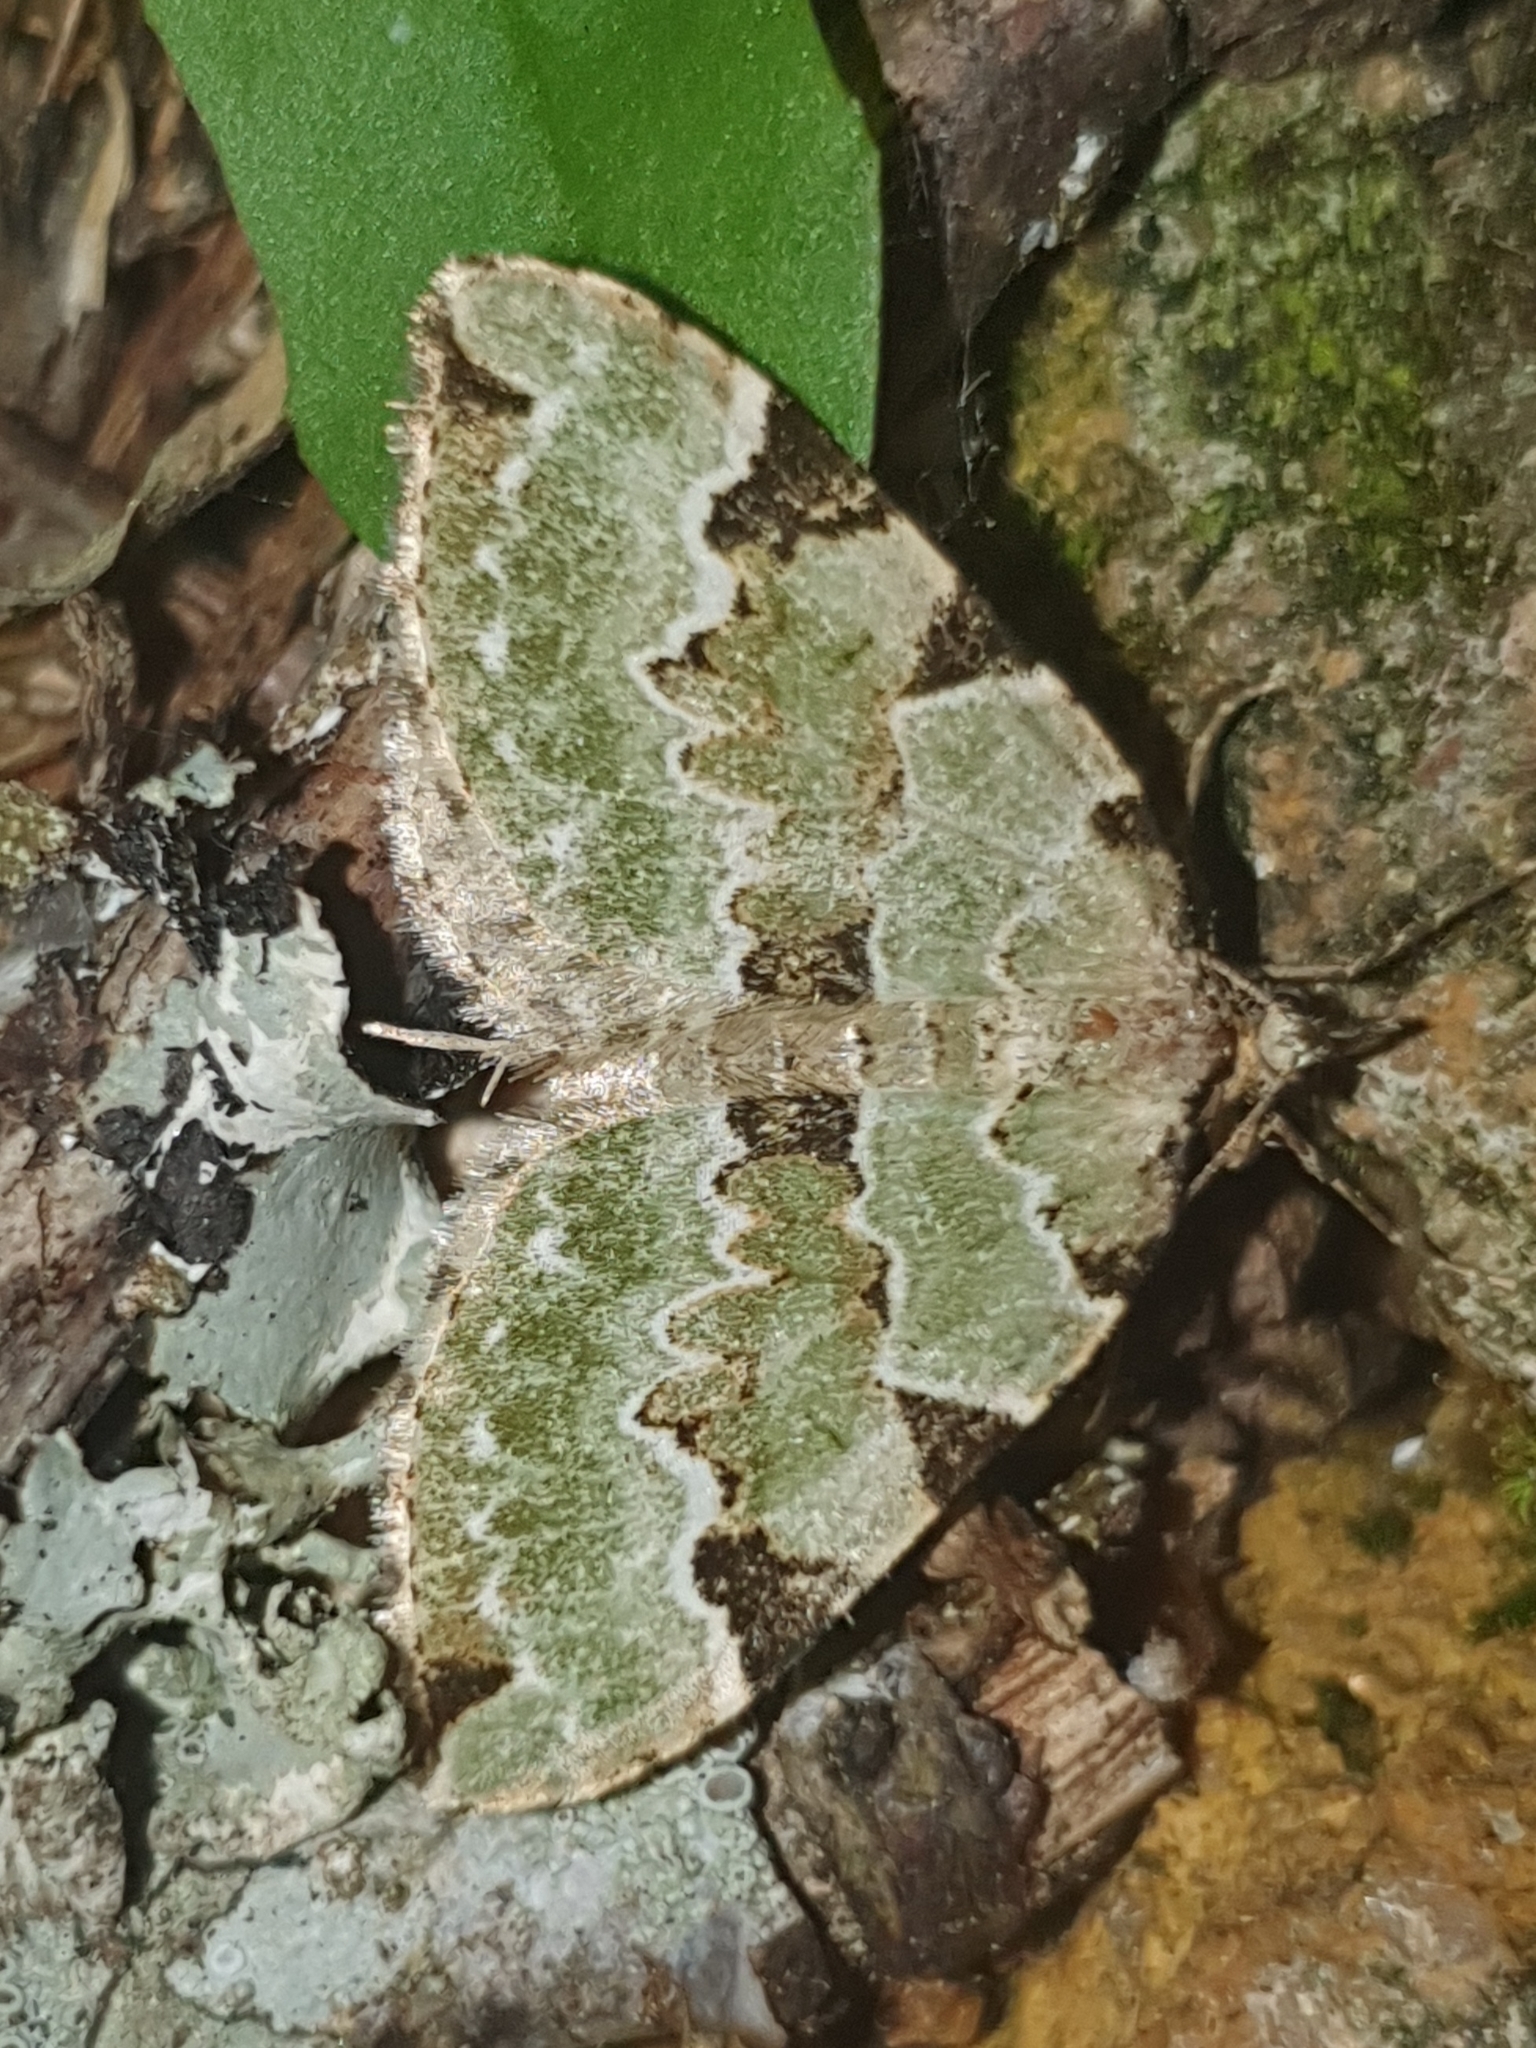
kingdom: Animalia
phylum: Arthropoda
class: Insecta
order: Lepidoptera
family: Geometridae
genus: Colostygia
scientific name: Colostygia pectinataria
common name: Green carpet
